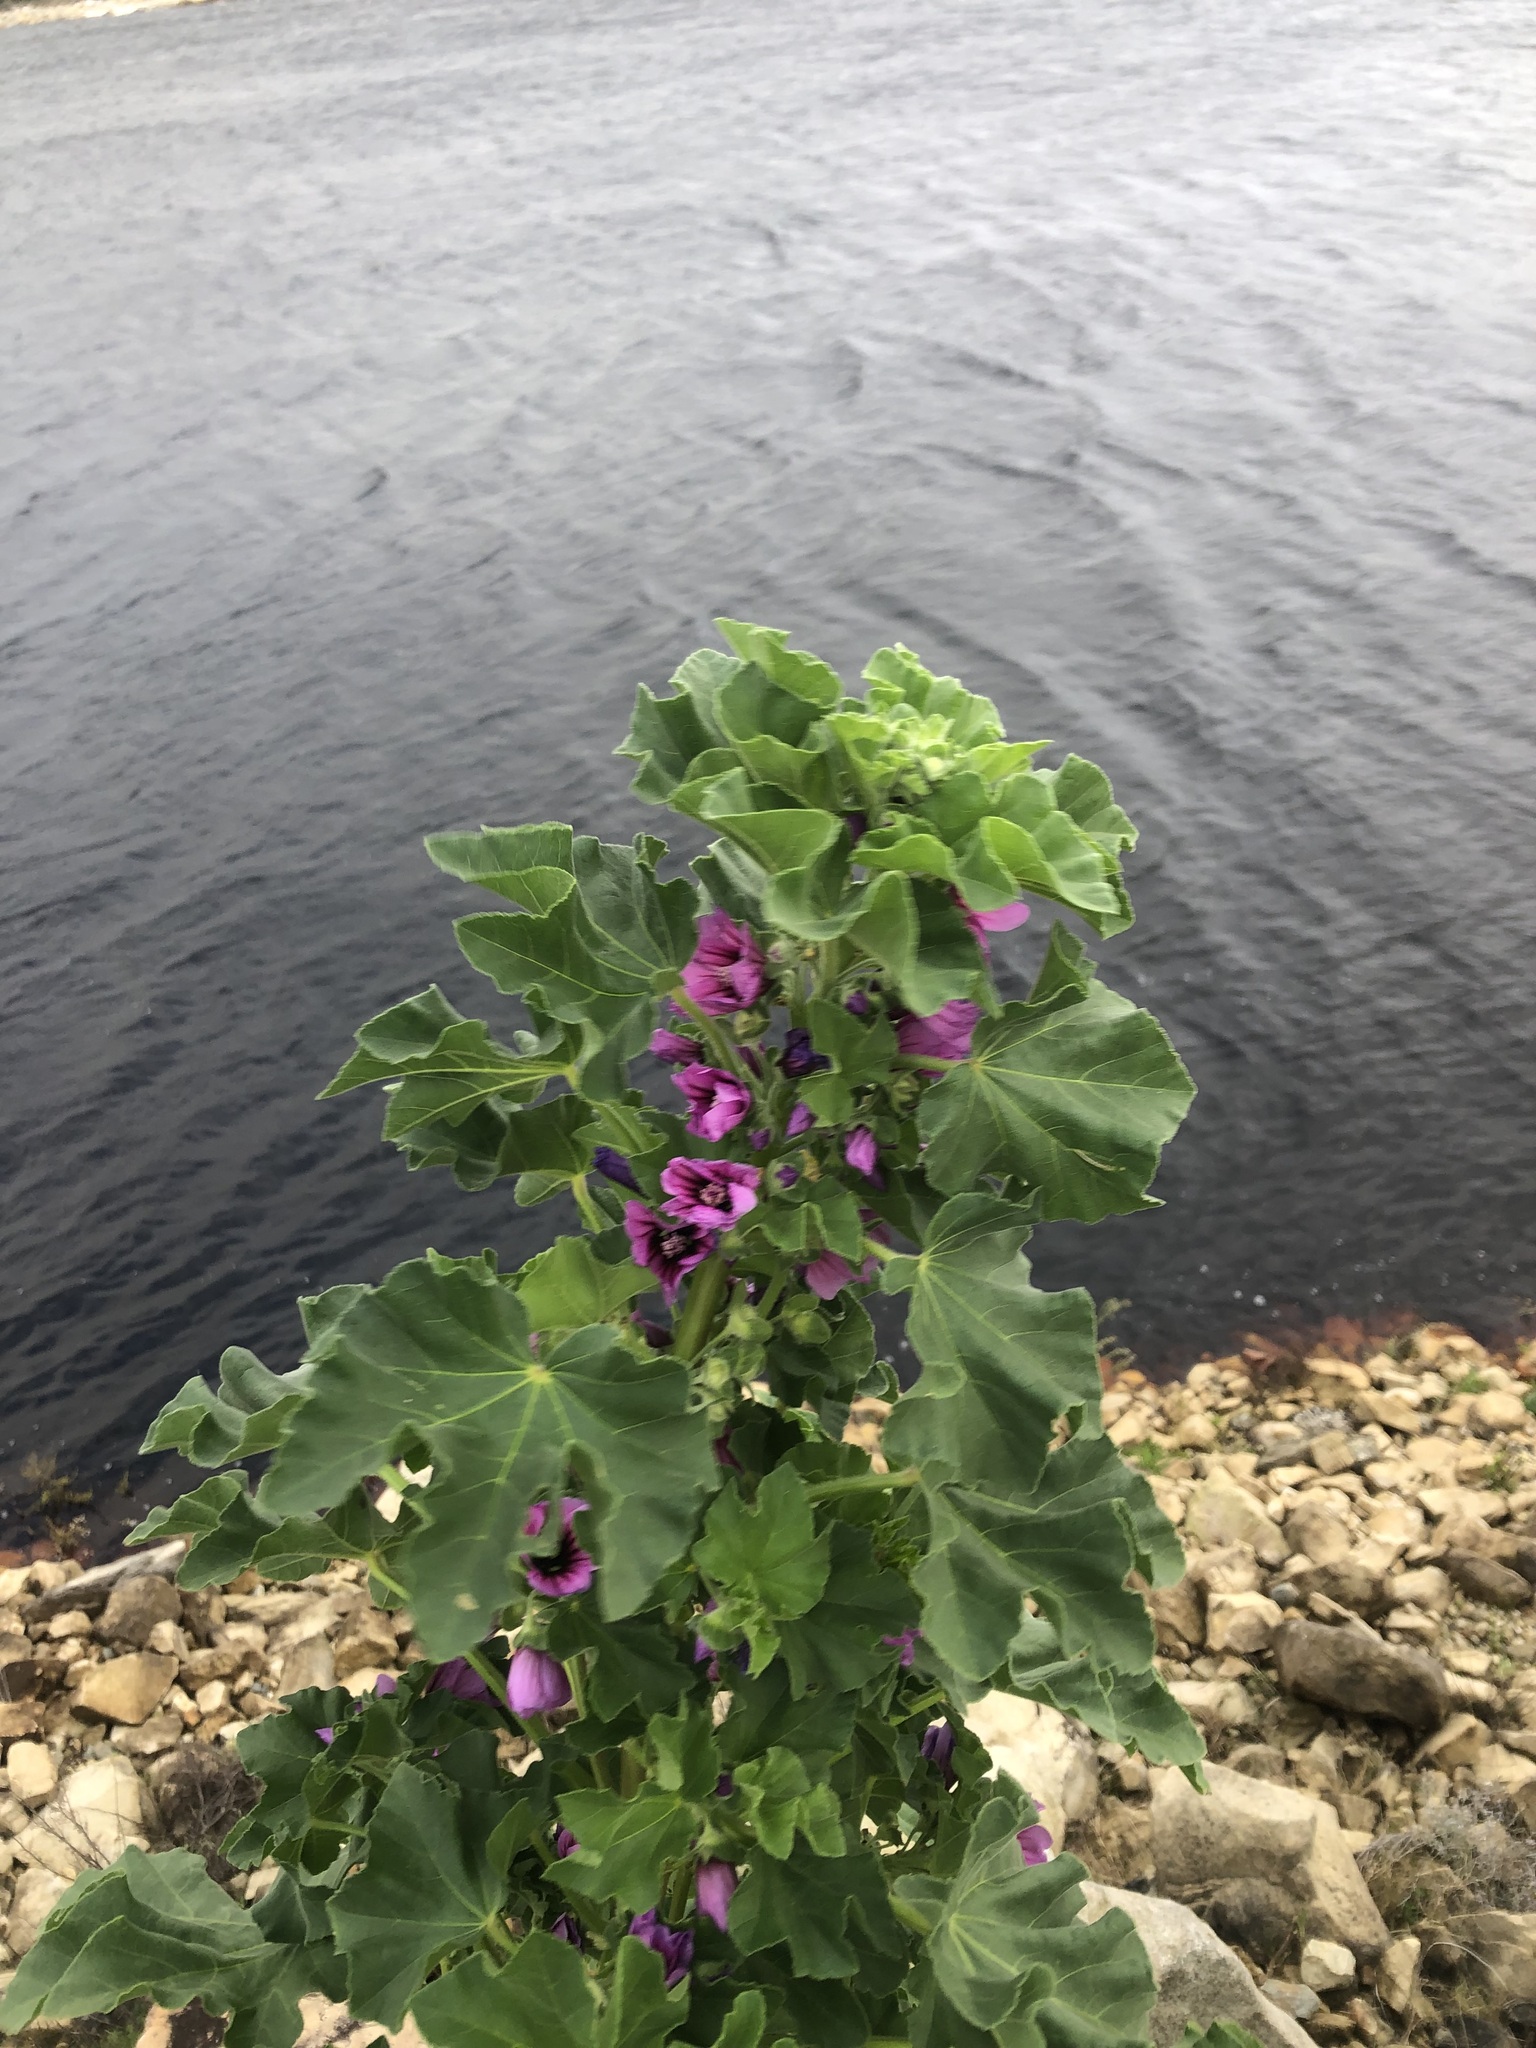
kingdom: Plantae
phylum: Tracheophyta
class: Magnoliopsida
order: Malvales
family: Malvaceae
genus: Malva
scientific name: Malva arborea
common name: Tree mallow
